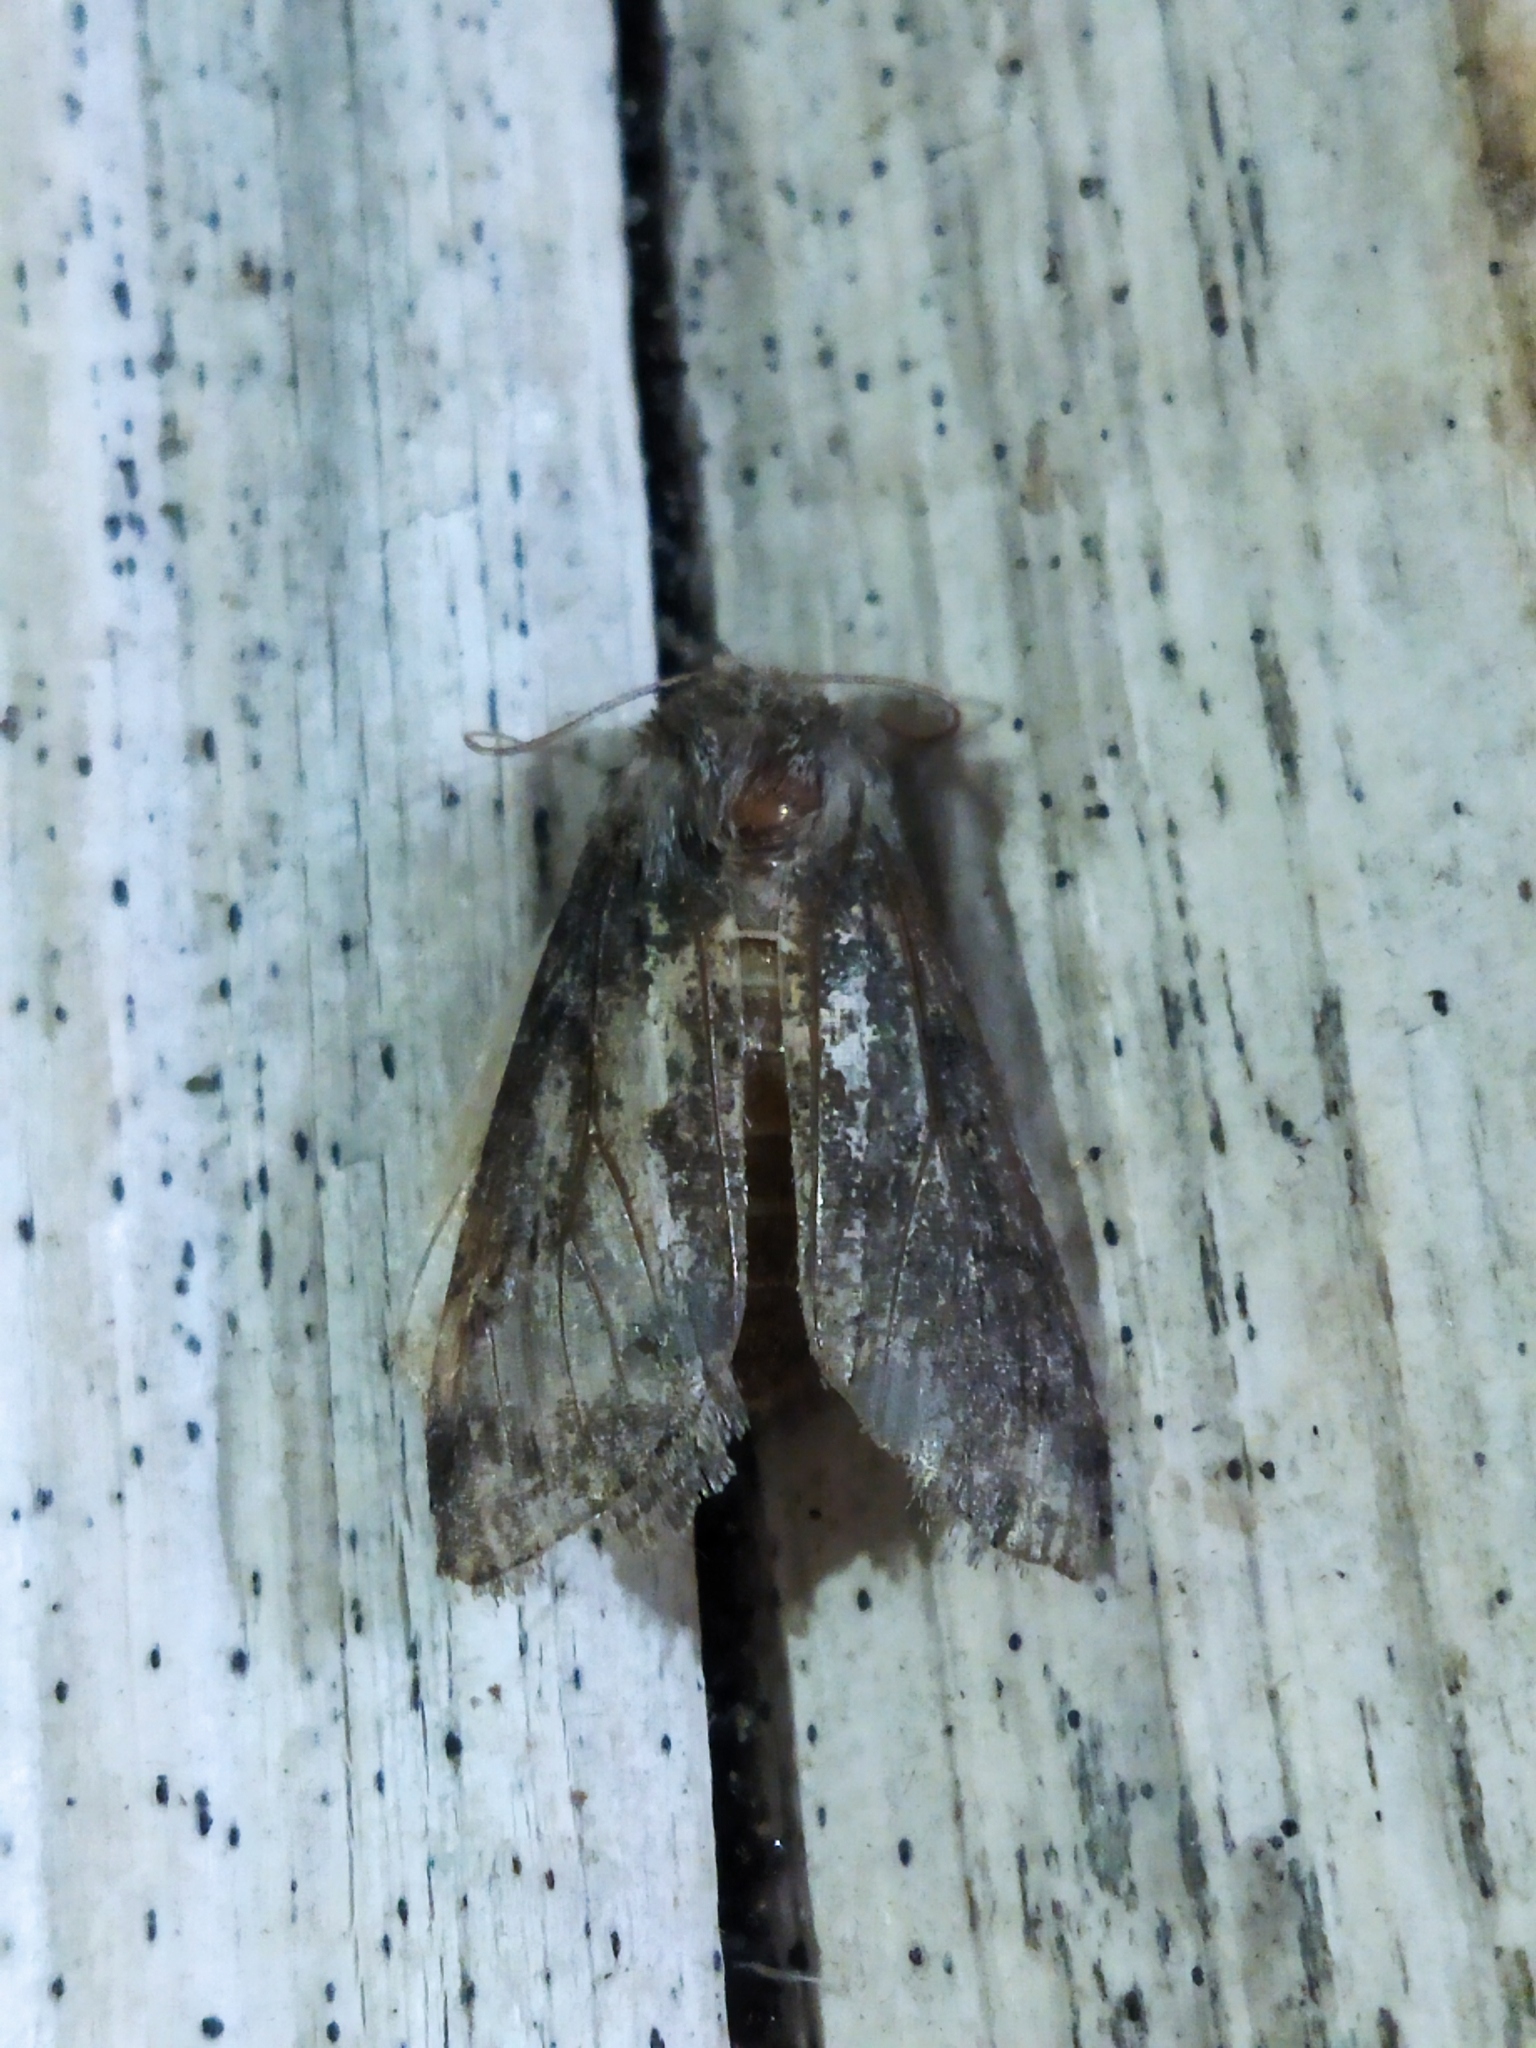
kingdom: Animalia
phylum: Arthropoda
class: Insecta
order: Lepidoptera
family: Drepanidae
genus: Polyploca
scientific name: Polyploca ruficollis
